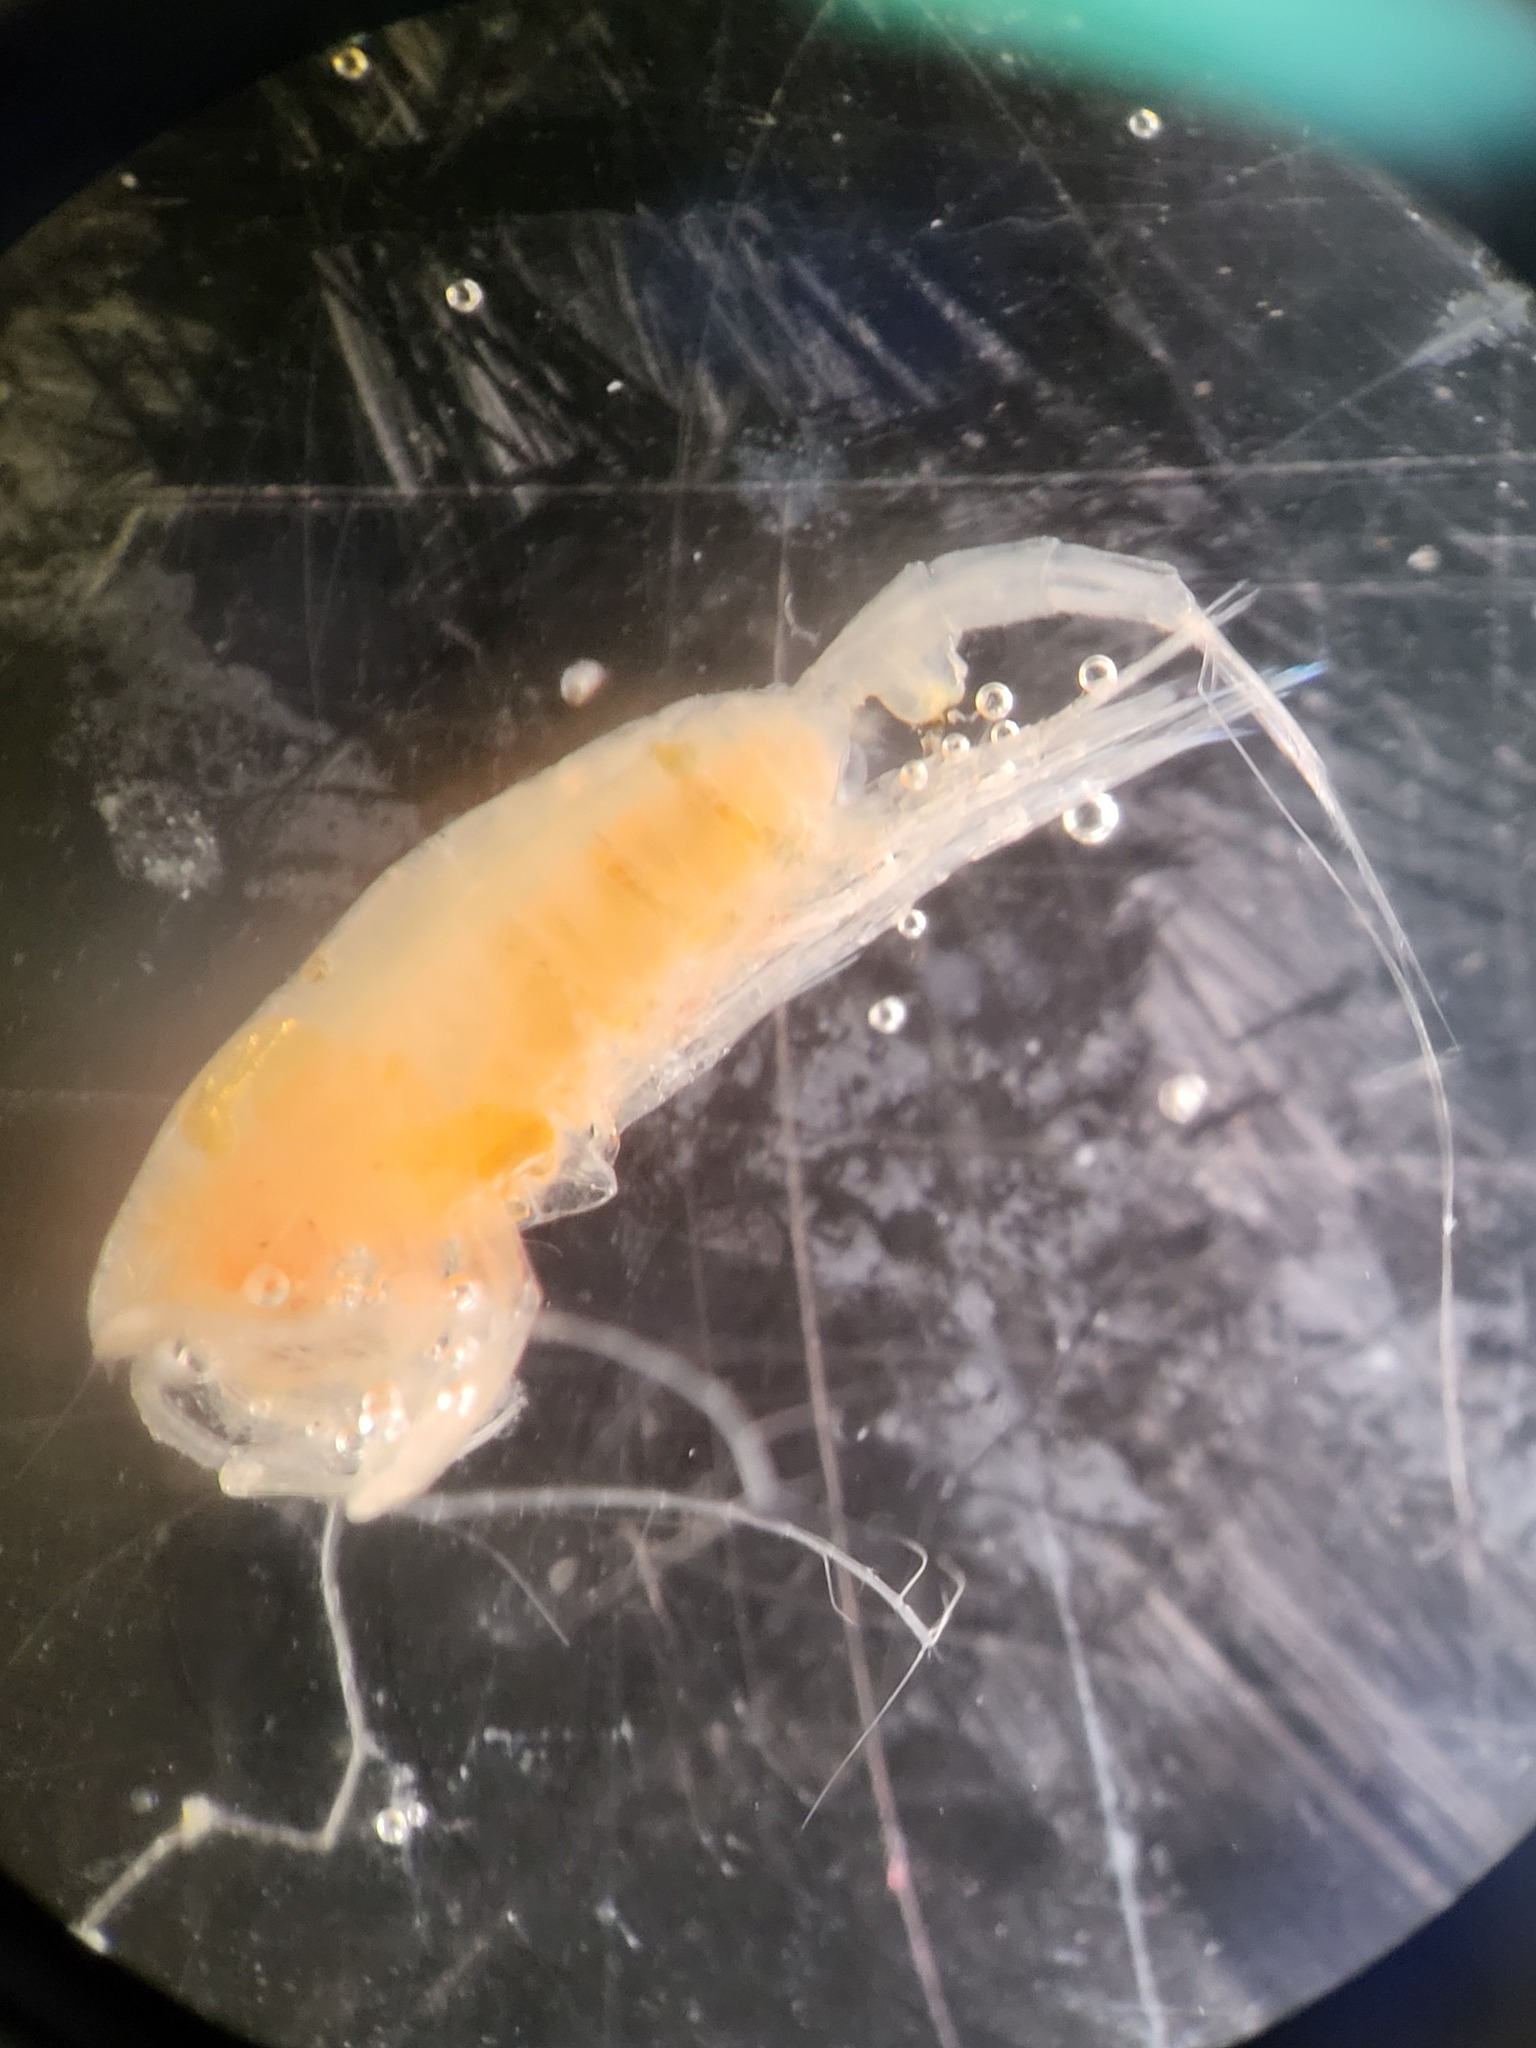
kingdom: Animalia
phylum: Arthropoda
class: Copepoda
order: Calanoida
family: Euchaetidae
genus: Paraeuchaeta
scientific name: Paraeuchaeta norvegica
